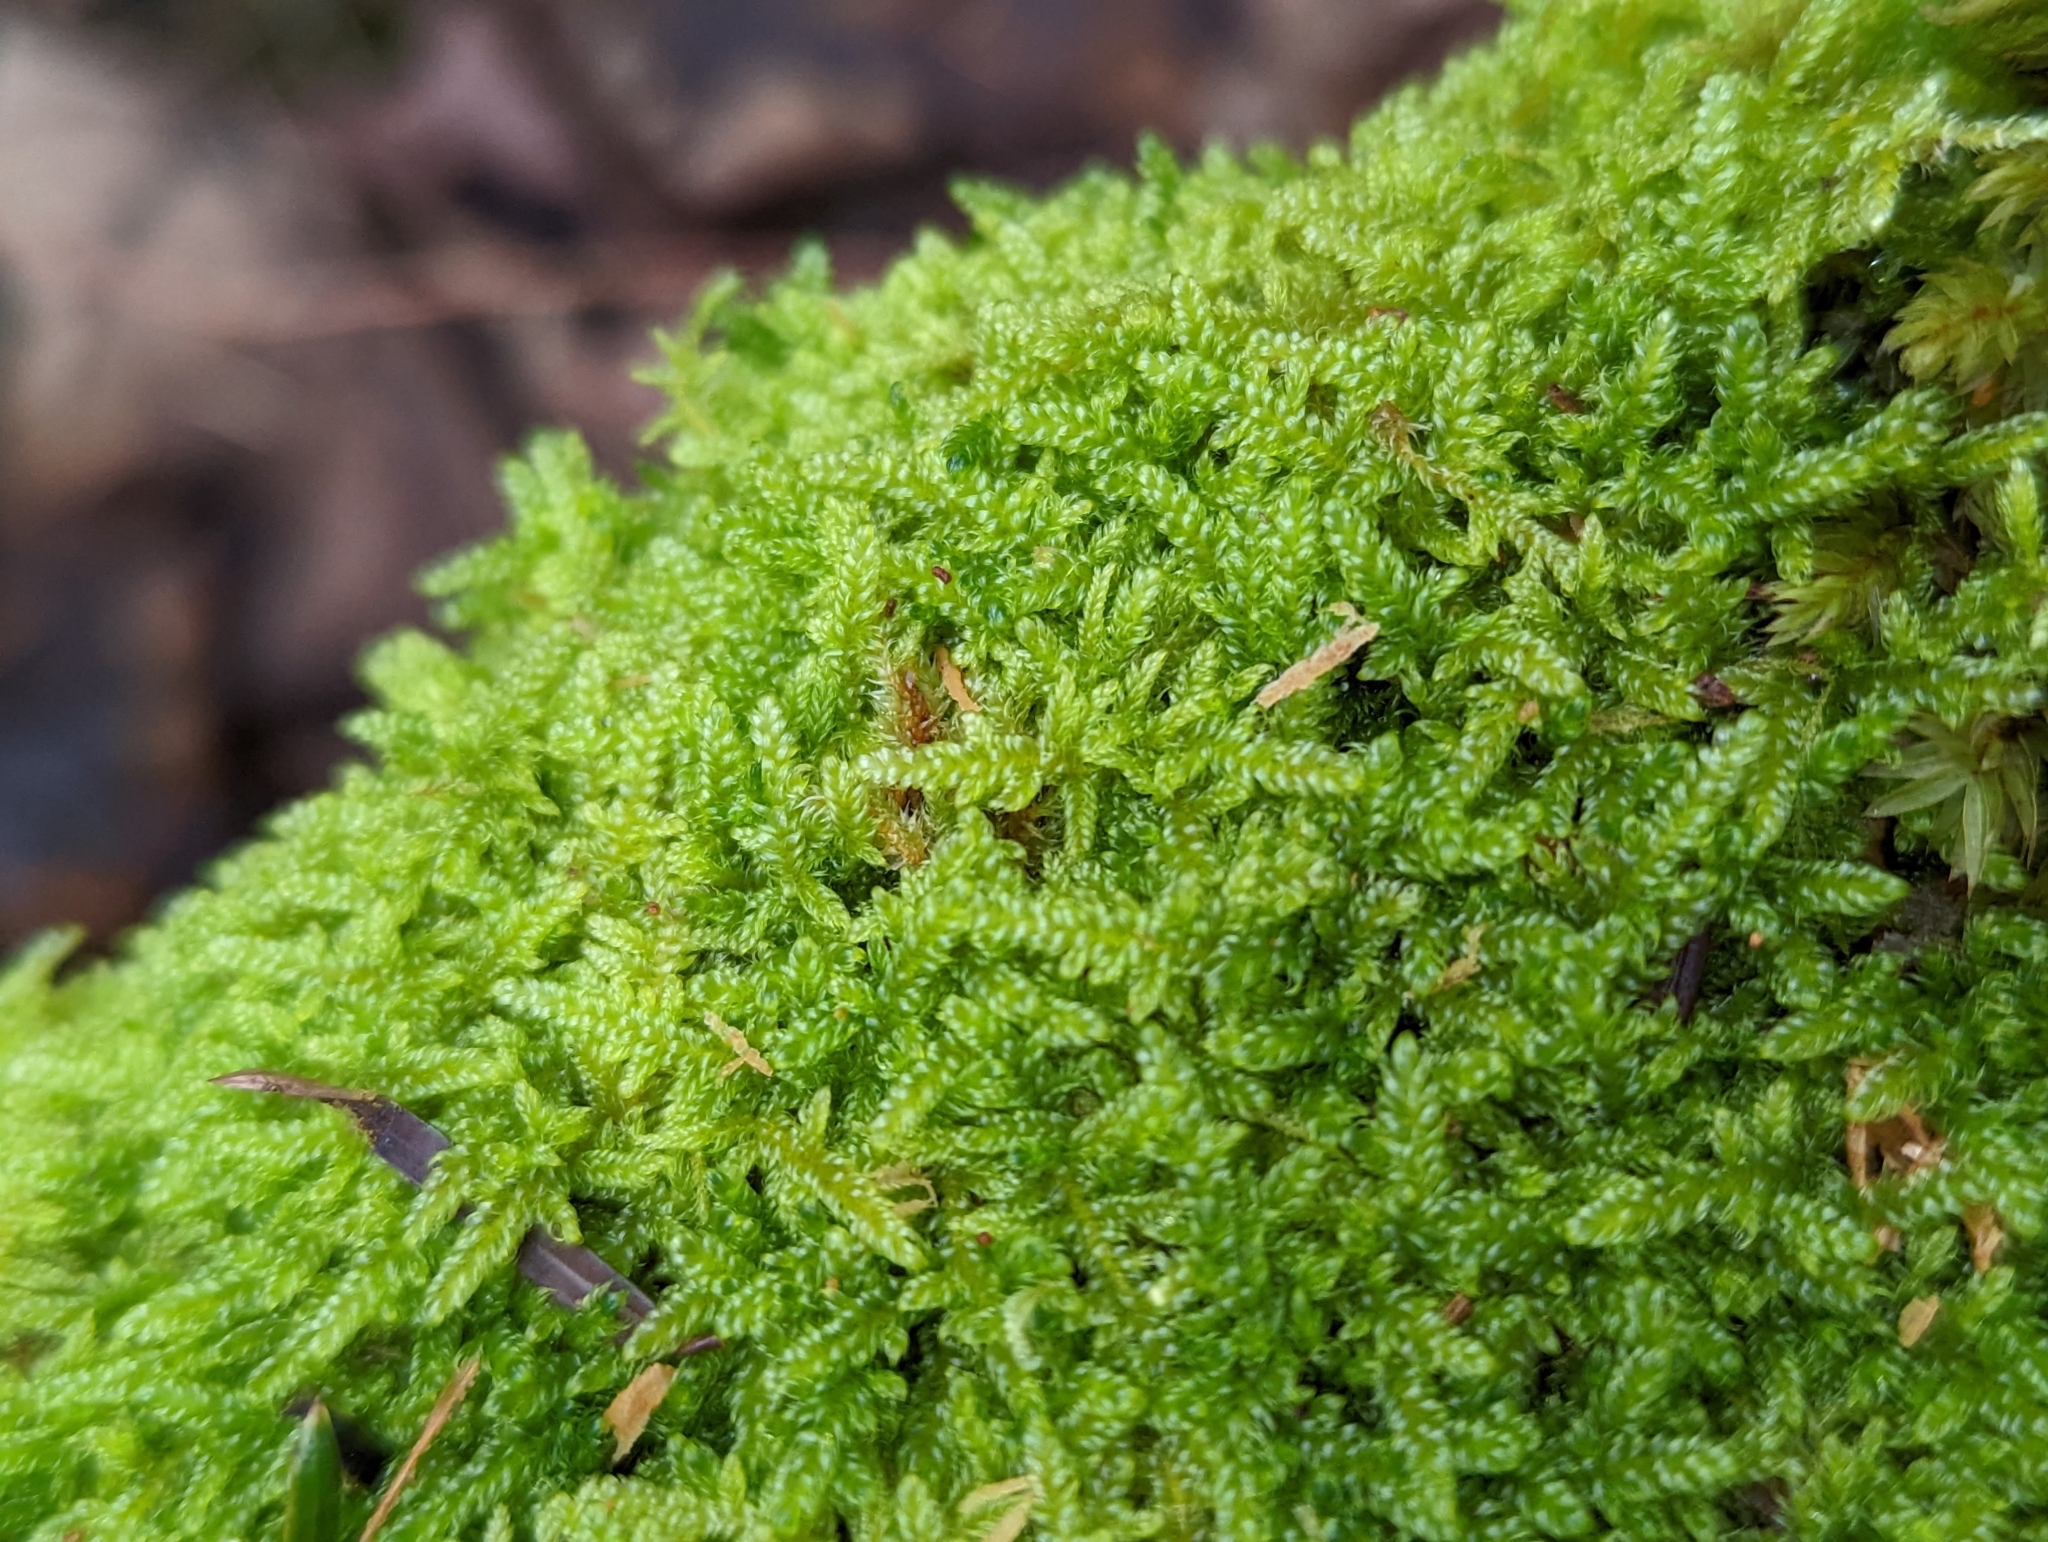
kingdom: Plantae
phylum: Bryophyta
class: Bryopsida
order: Hypnales
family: Hypnaceae
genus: Hypnum
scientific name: Hypnum cupressiforme
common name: Cypress-leaved plait-moss
